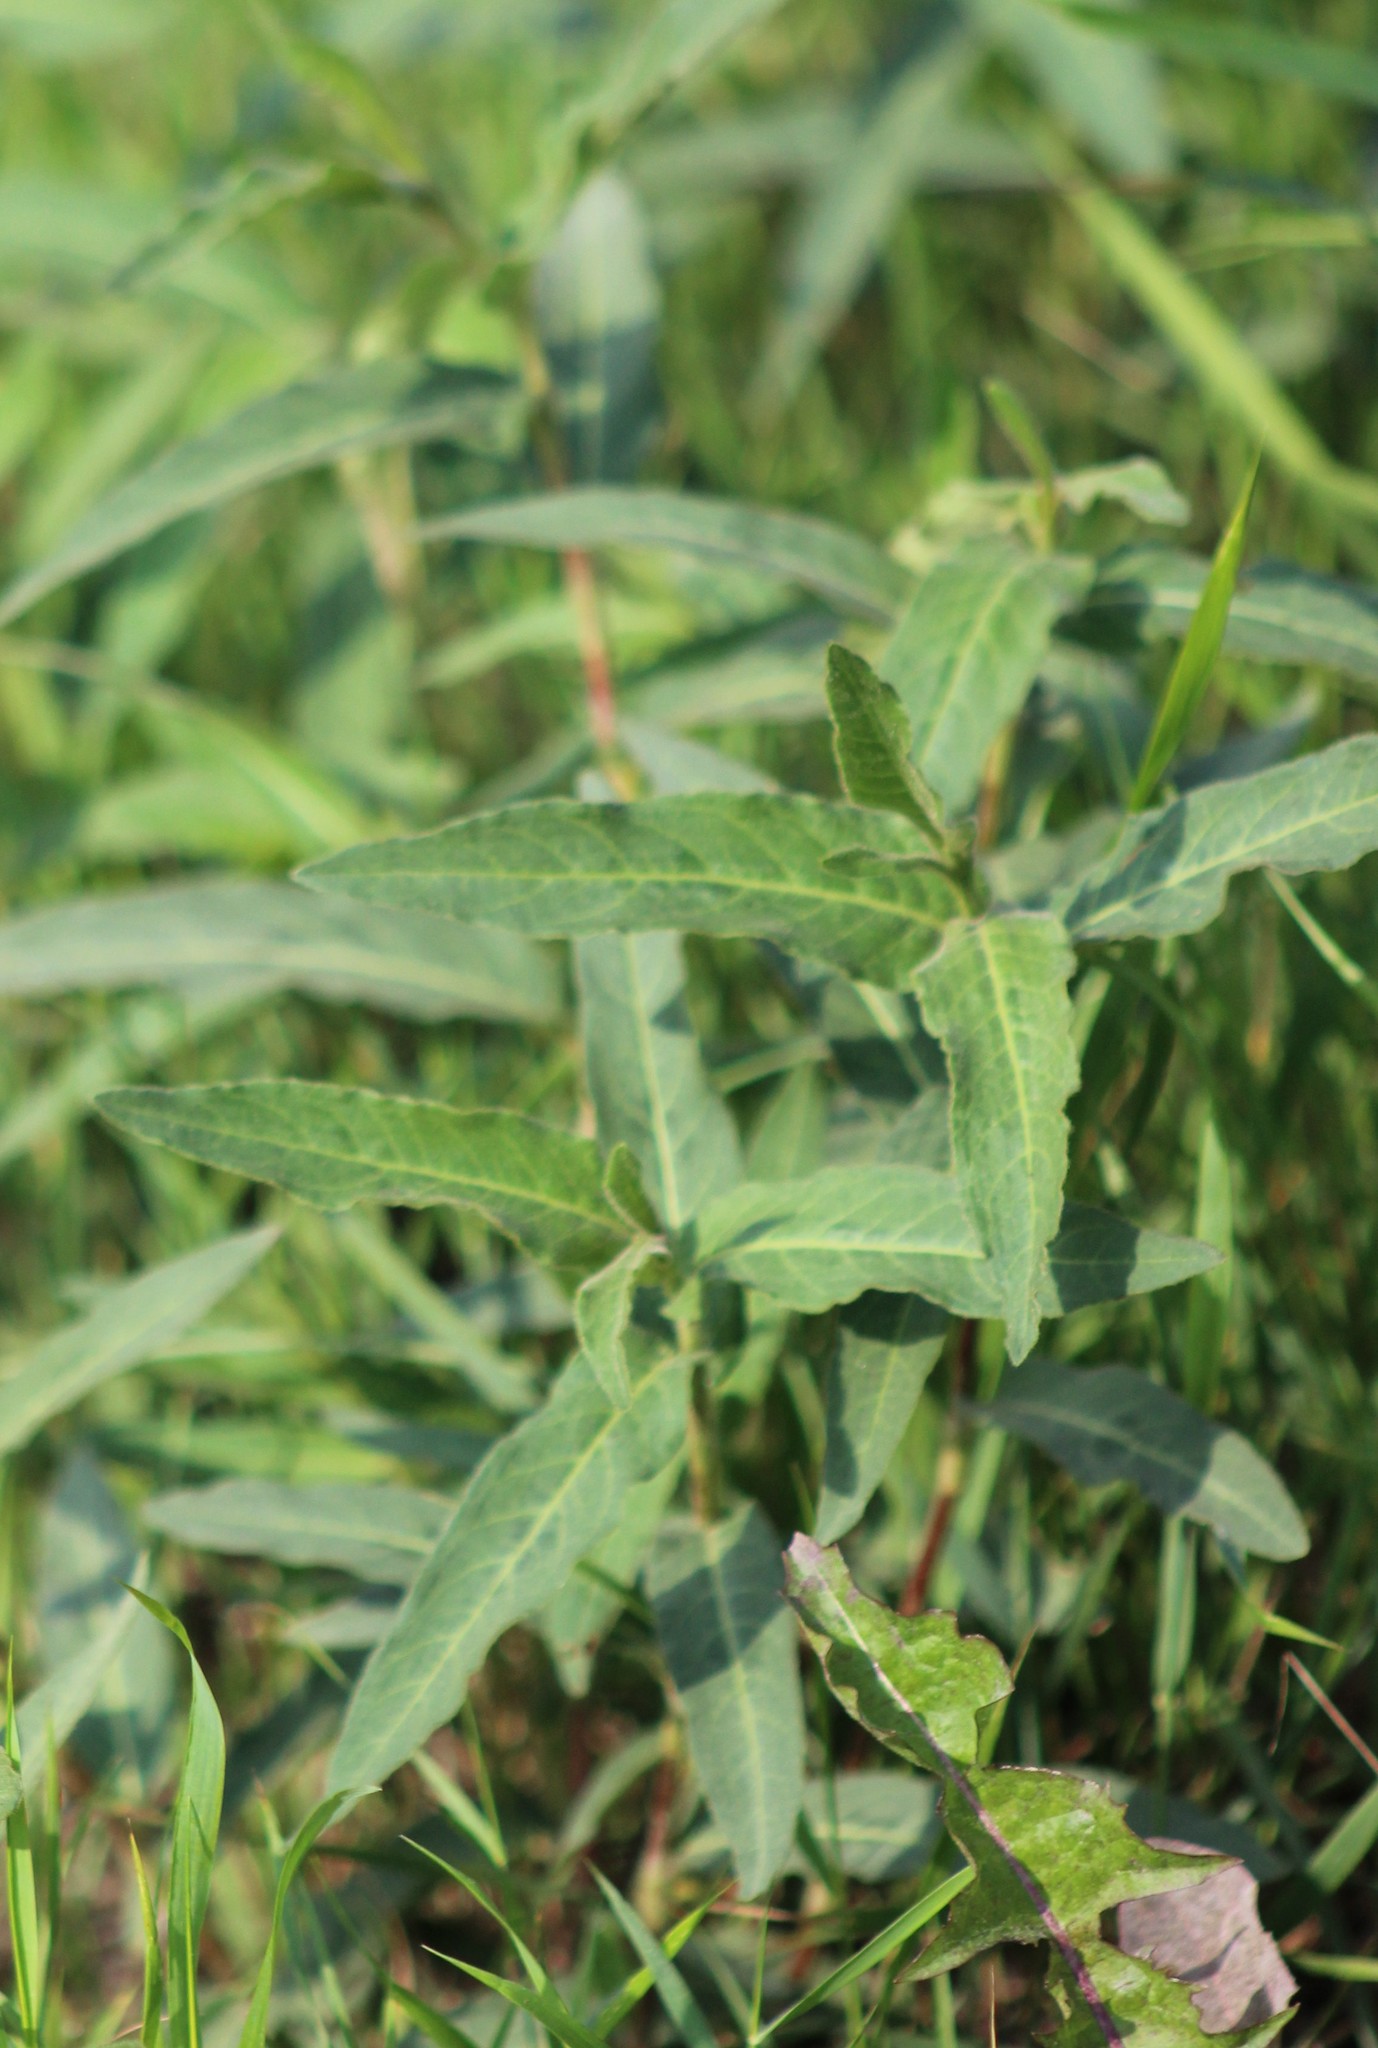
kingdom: Plantae
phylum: Tracheophyta
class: Magnoliopsida
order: Caryophyllales
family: Polygonaceae
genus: Persicaria
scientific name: Persicaria amphibia
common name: Amphibious bistort
